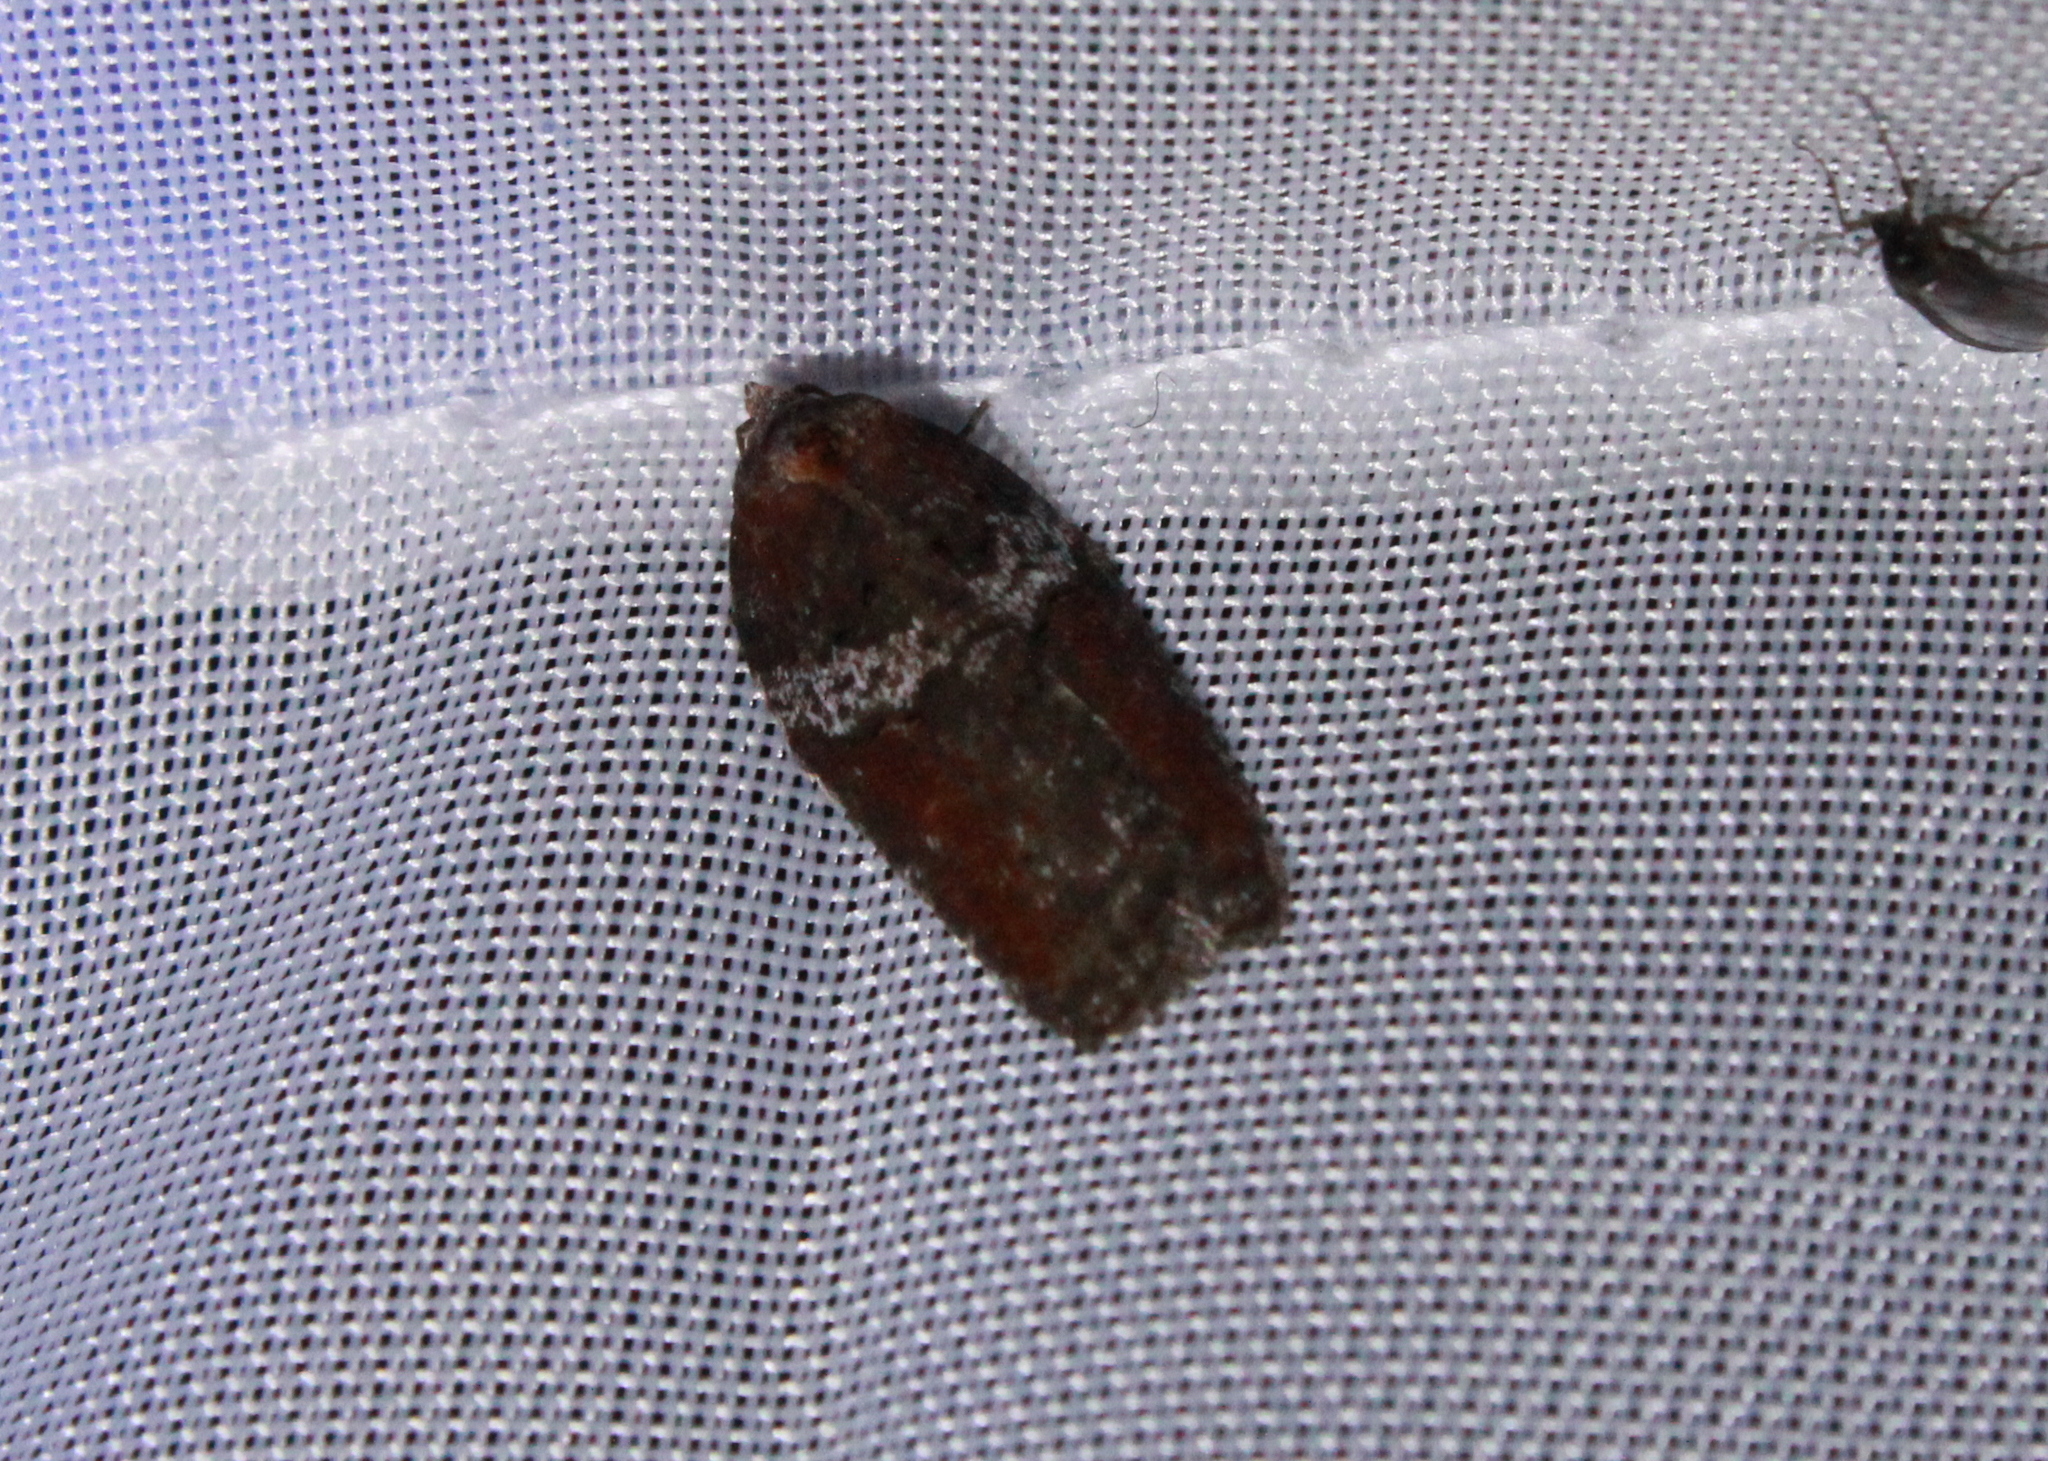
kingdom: Animalia
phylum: Arthropoda
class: Insecta
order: Lepidoptera
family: Tortricidae
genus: Acleris
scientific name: Acleris celiana
